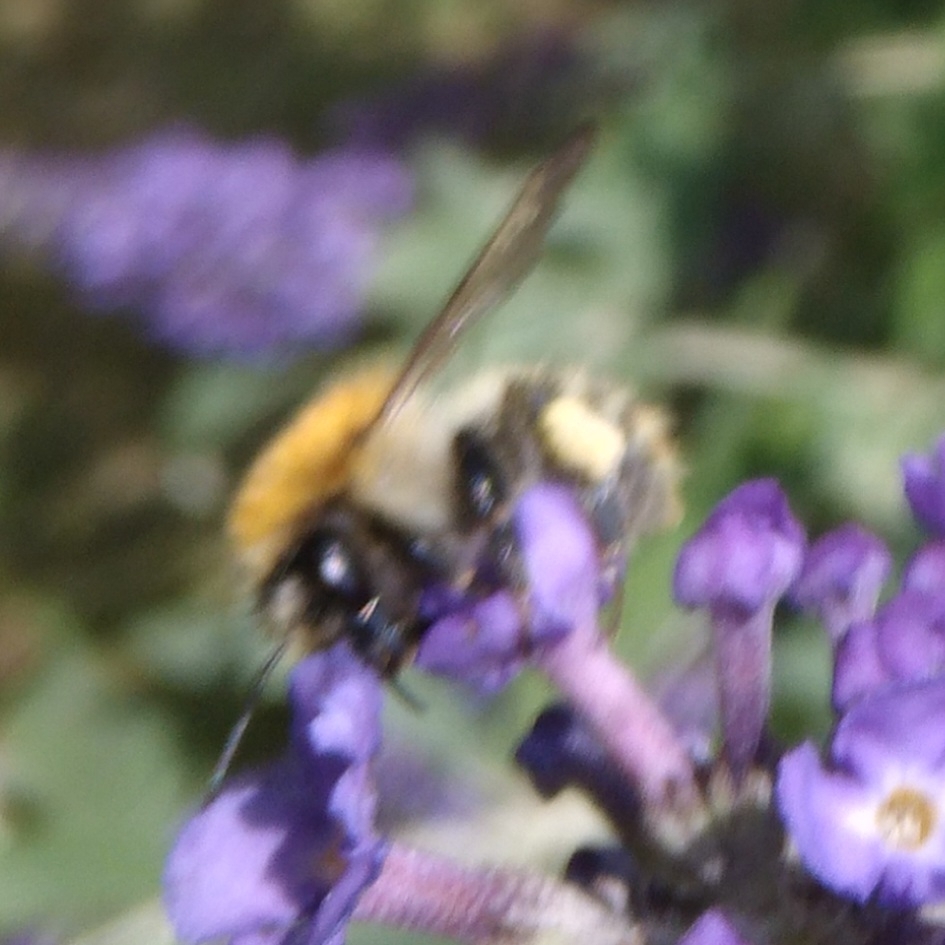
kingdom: Animalia
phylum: Arthropoda
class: Insecta
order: Hymenoptera
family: Apidae
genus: Bombus
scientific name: Bombus pascuorum
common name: Common carder bee
